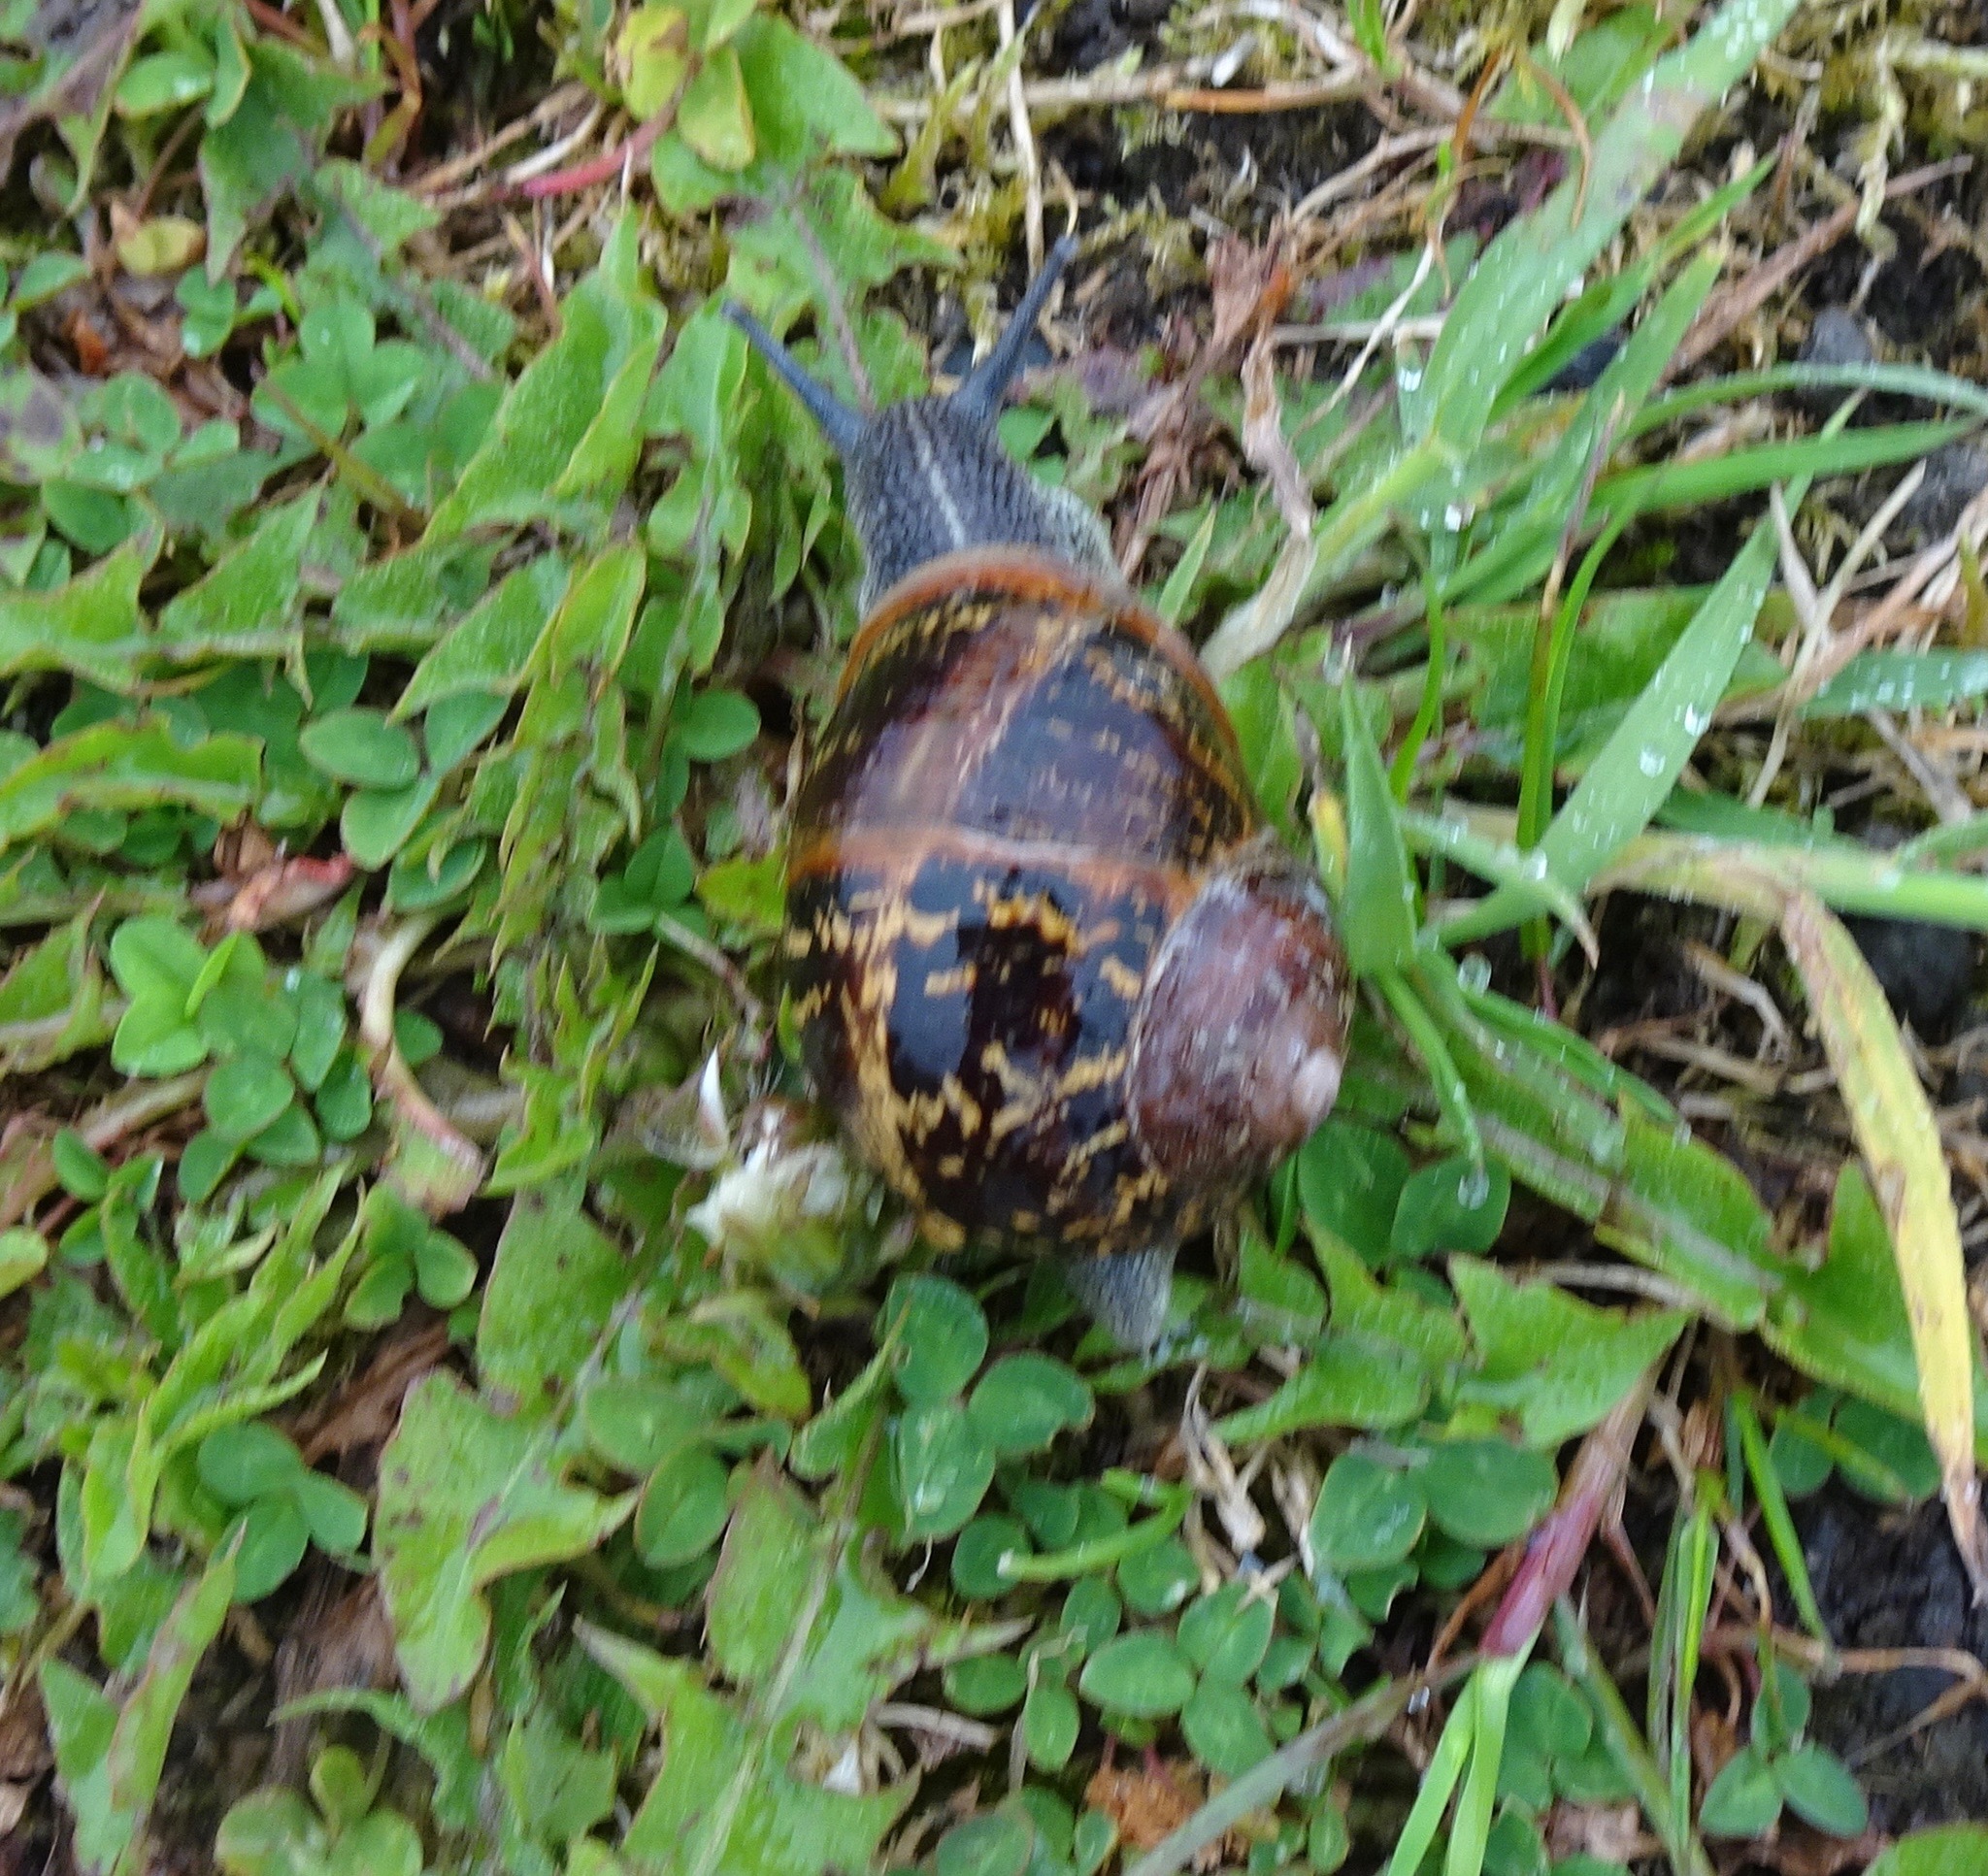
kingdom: Animalia
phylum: Mollusca
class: Gastropoda
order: Stylommatophora
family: Helicidae
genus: Cornu
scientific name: Cornu aspersum
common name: Brown garden snail
